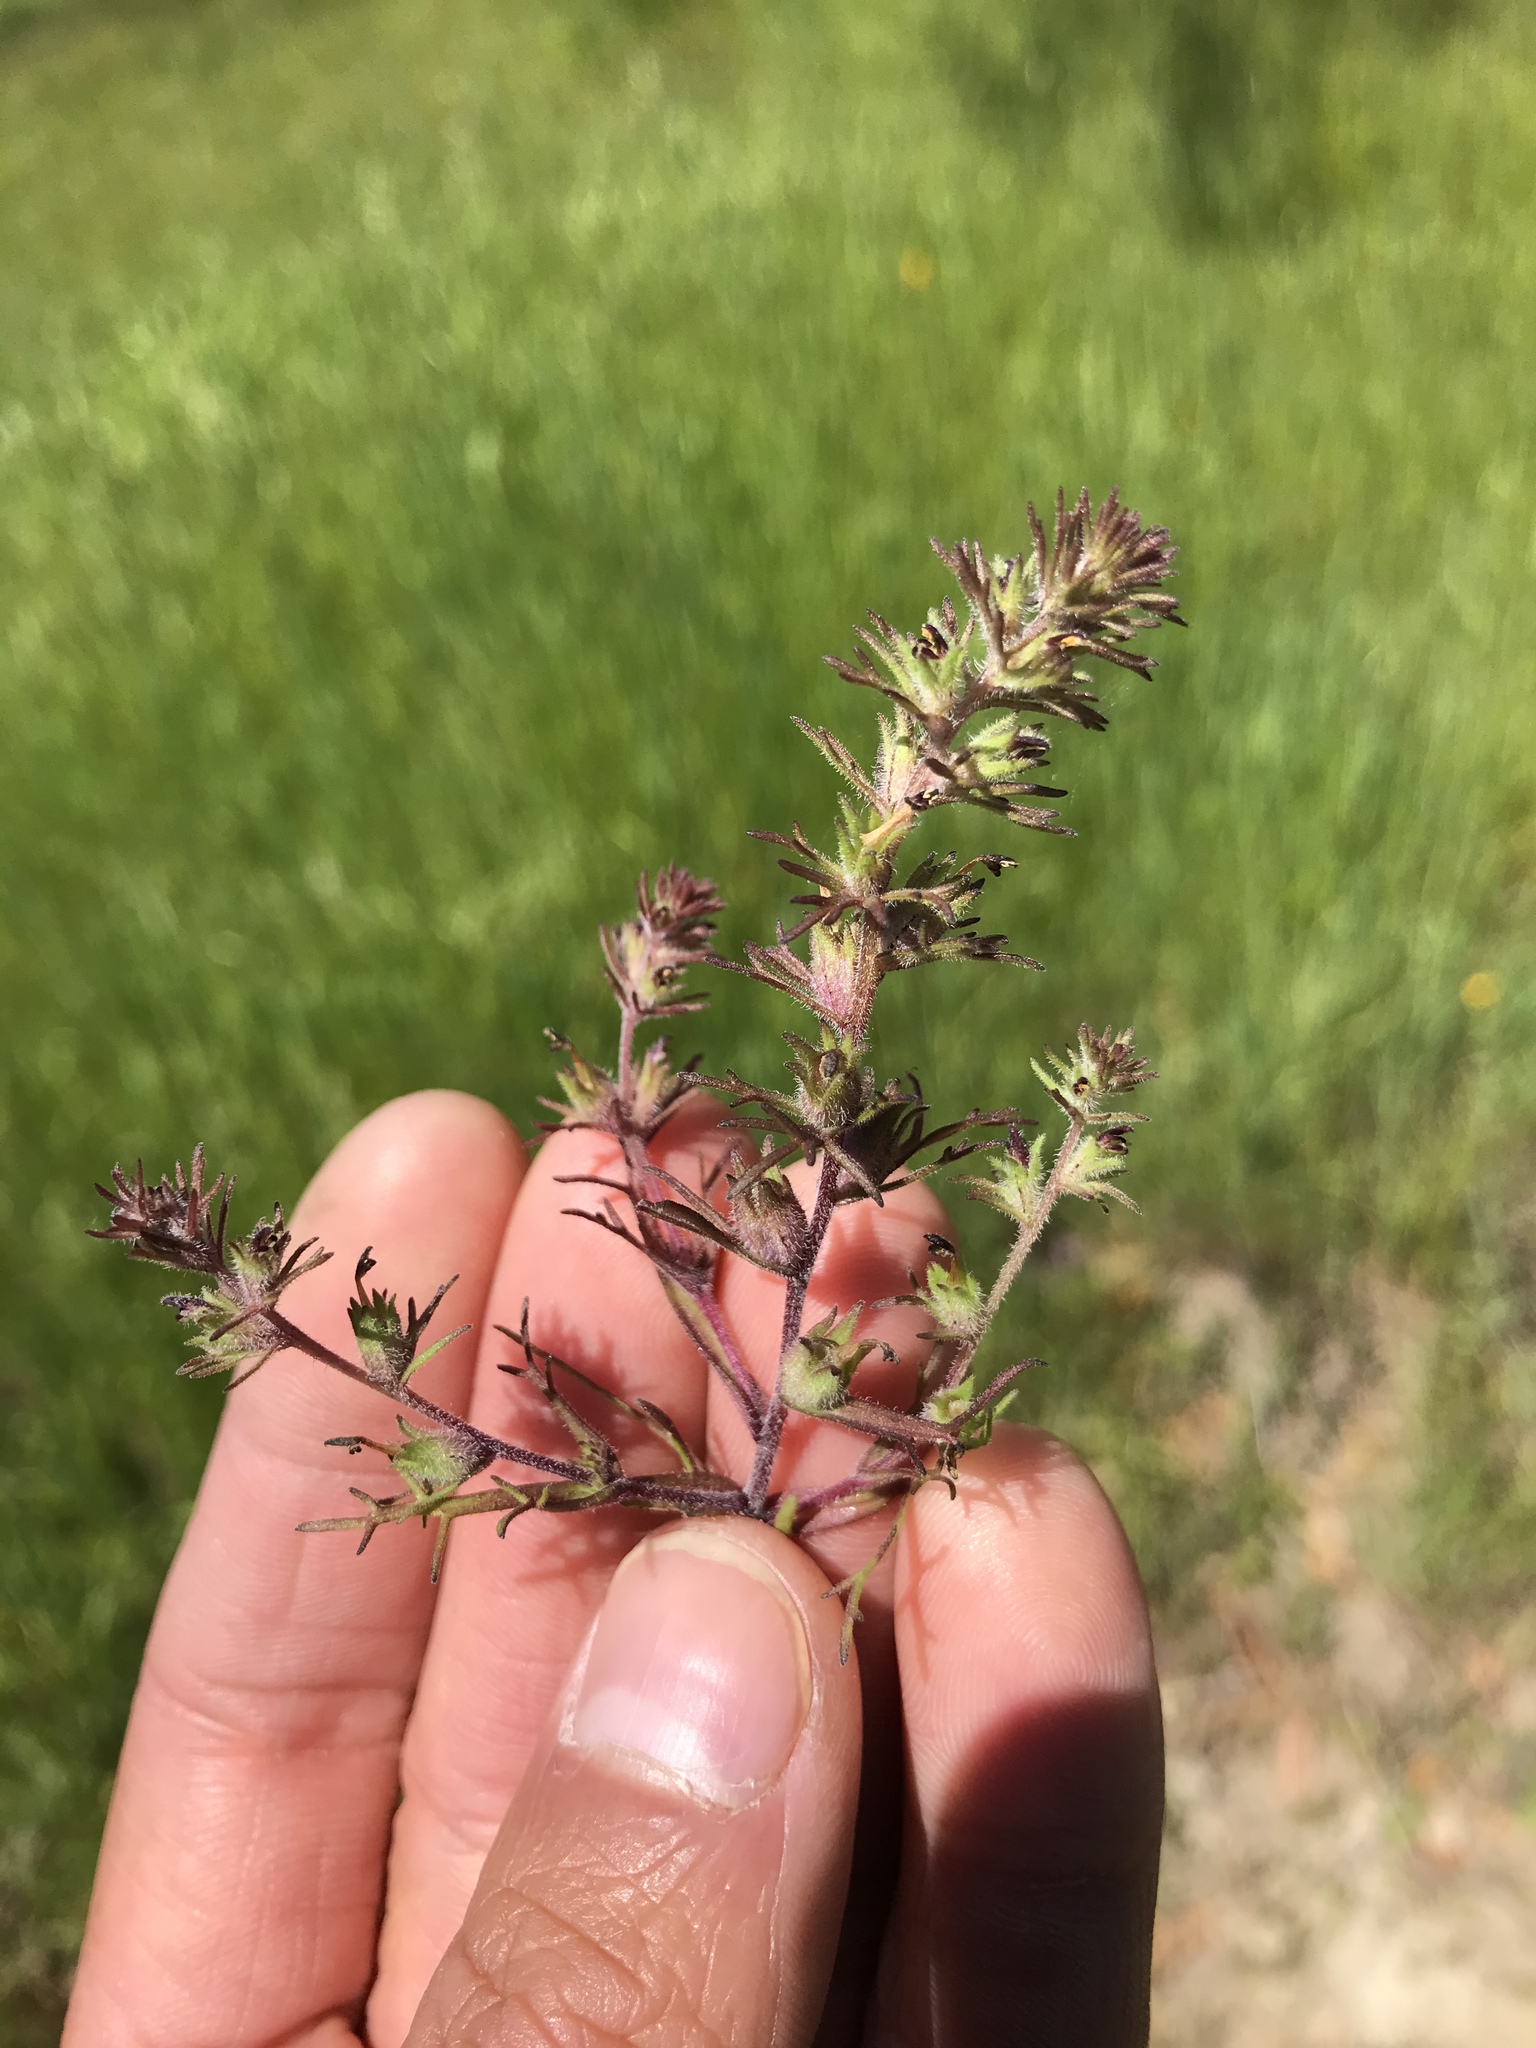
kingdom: Plantae
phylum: Tracheophyta
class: Magnoliopsida
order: Lamiales
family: Orobanchaceae
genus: Triphysaria
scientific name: Triphysaria pusilla
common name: Dwarf false owl-clover
